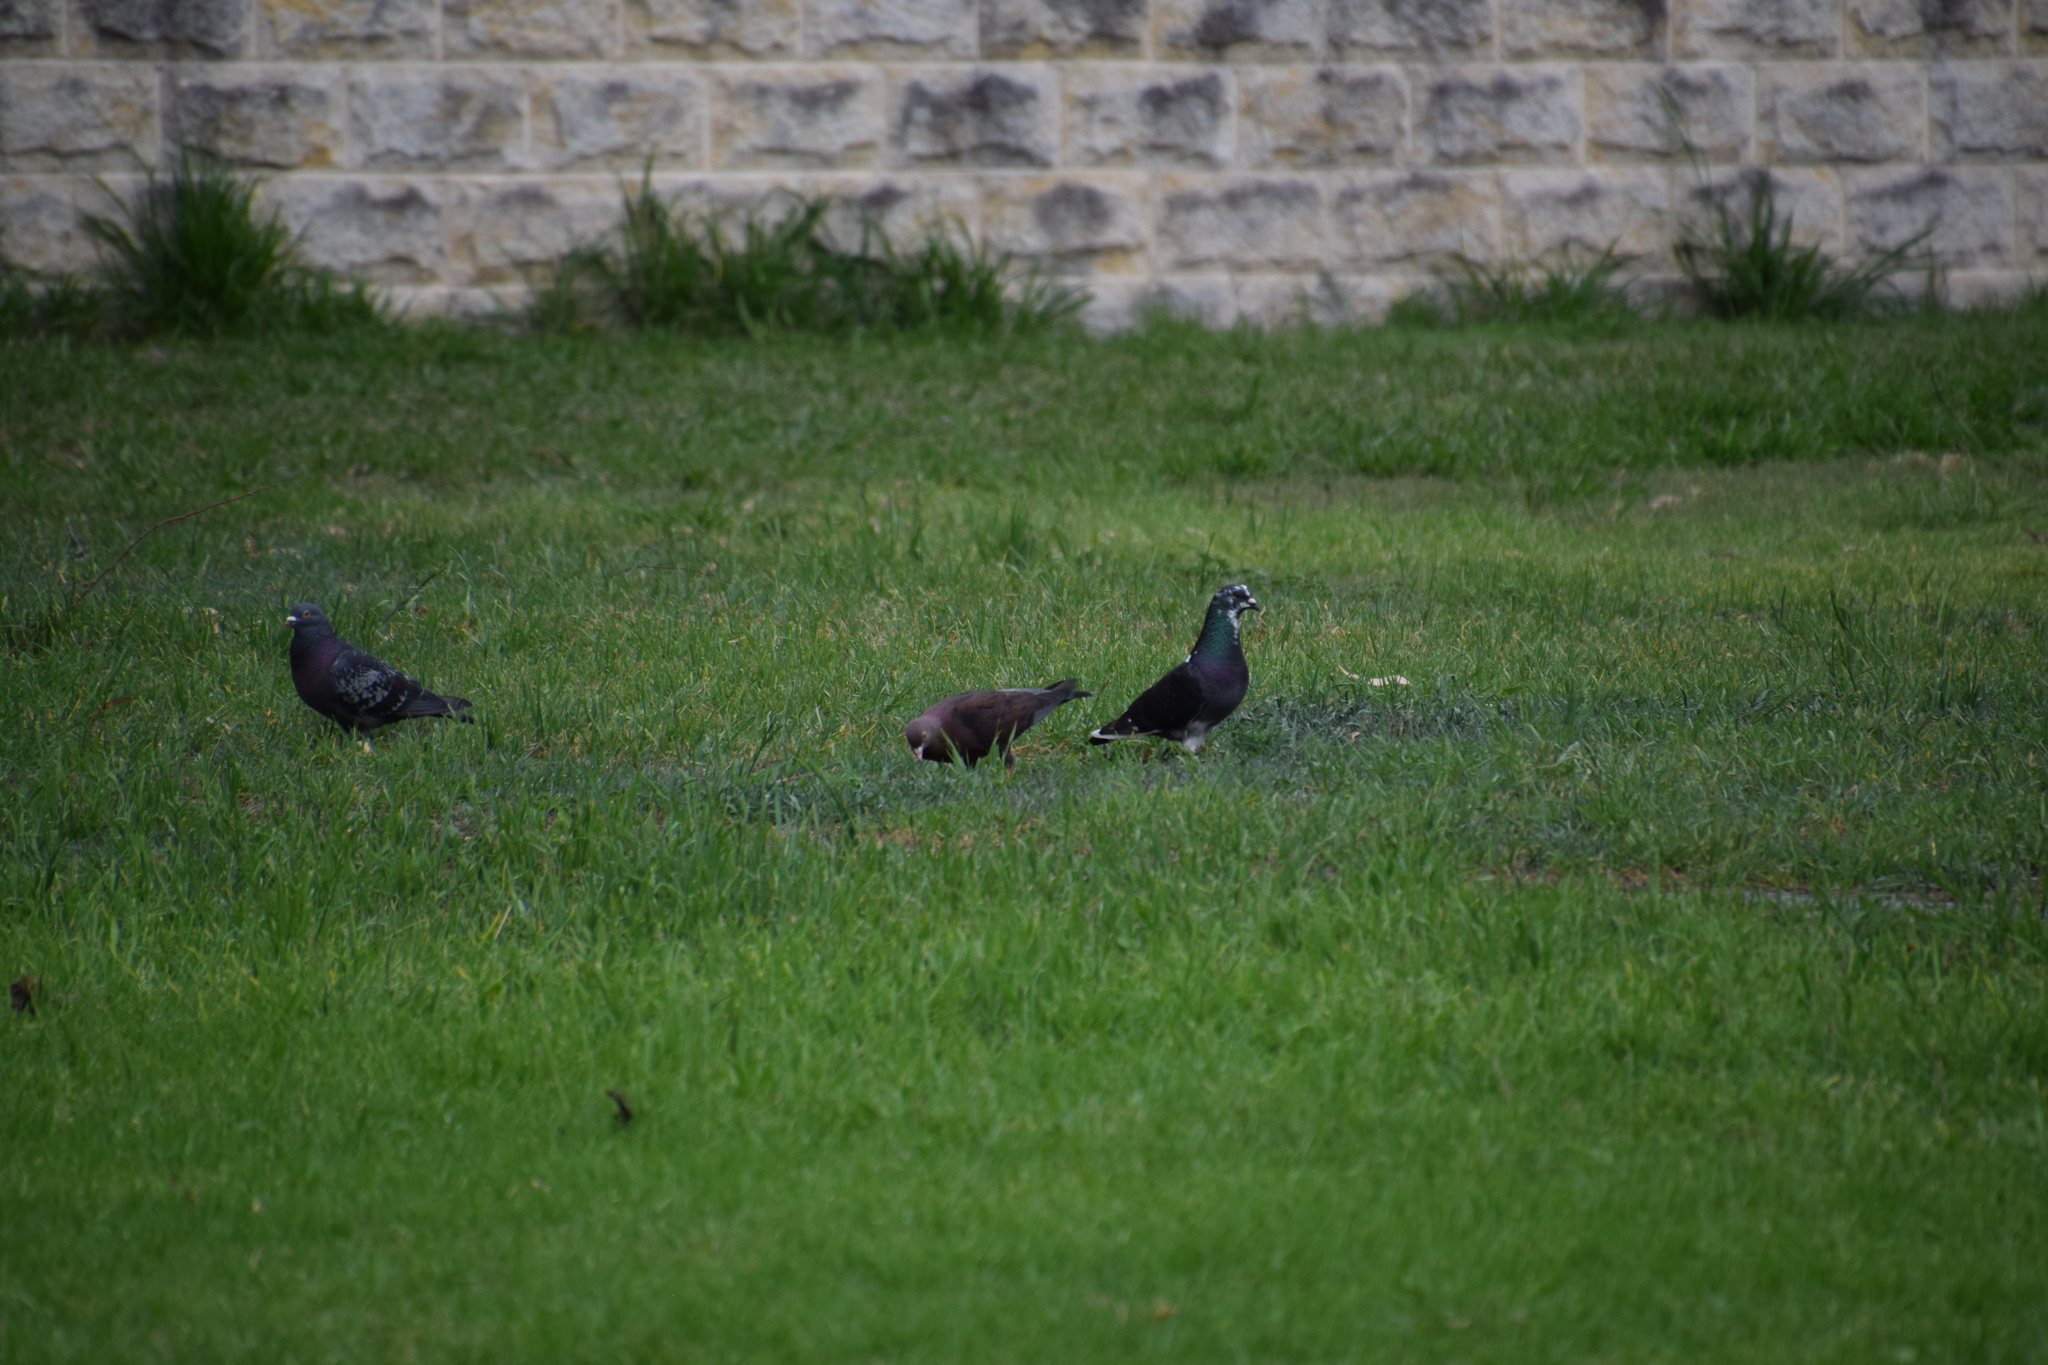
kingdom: Animalia
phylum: Chordata
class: Aves
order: Columbiformes
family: Columbidae
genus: Columba
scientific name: Columba livia
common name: Rock pigeon
